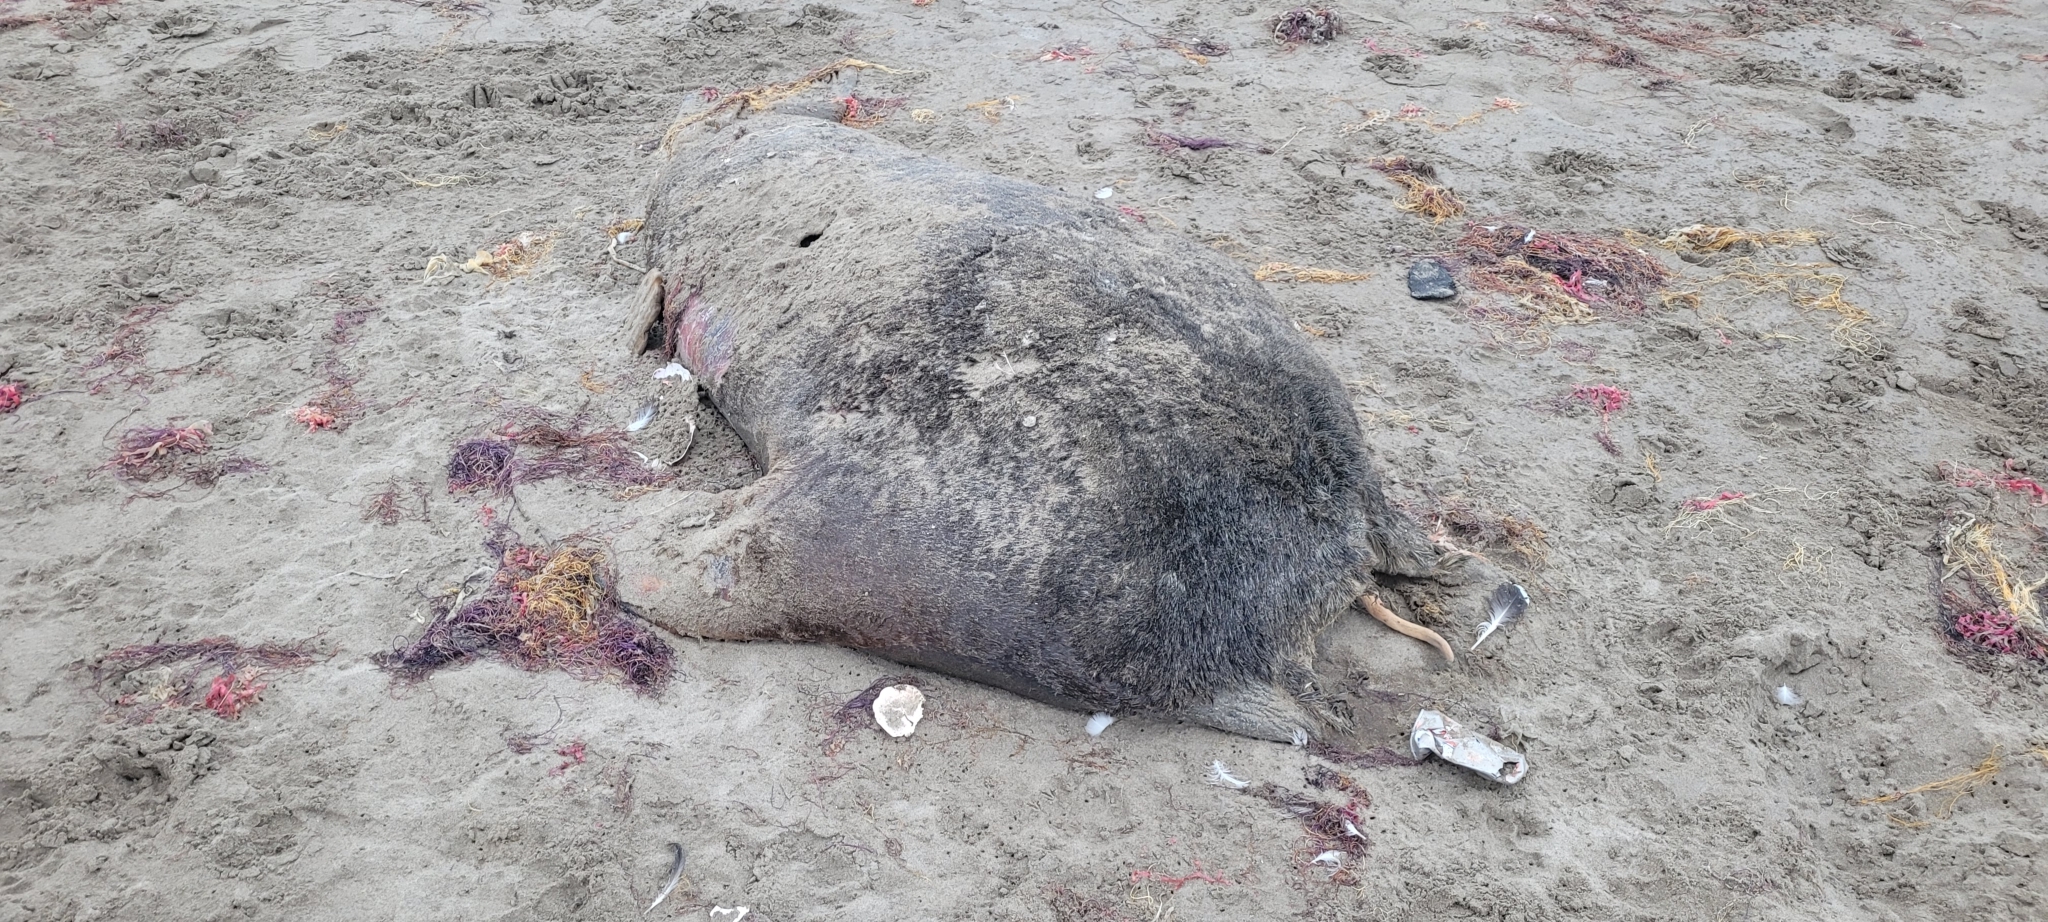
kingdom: Animalia
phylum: Chordata
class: Mammalia
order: Carnivora
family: Otariidae
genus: Otaria
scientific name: Otaria byronia
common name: South american sea lion
